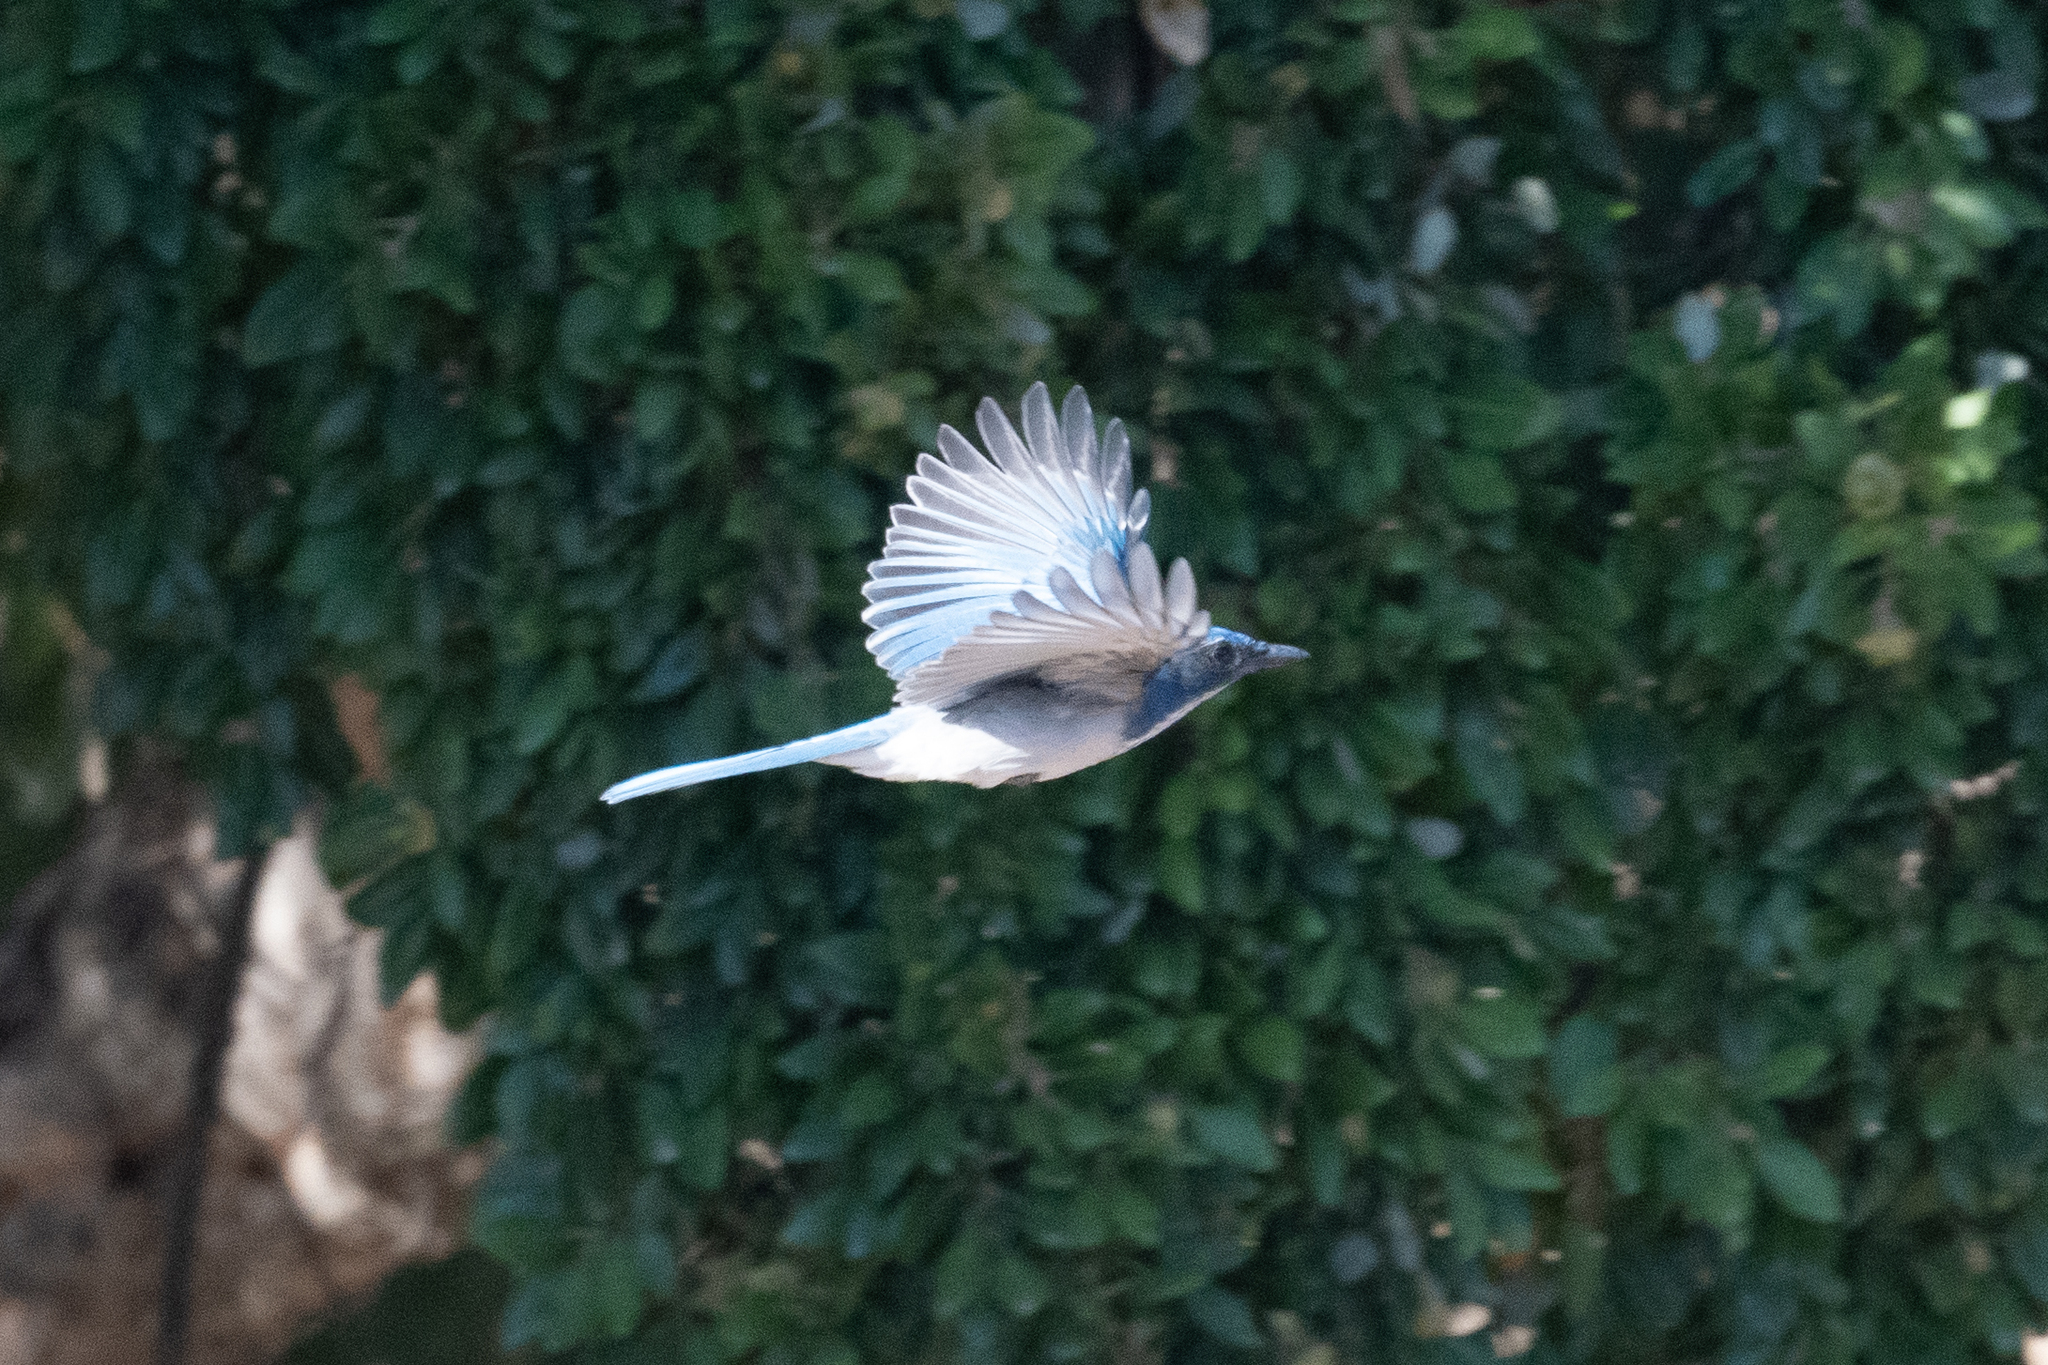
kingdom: Animalia
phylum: Chordata
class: Aves
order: Passeriformes
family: Corvidae
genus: Aphelocoma
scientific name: Aphelocoma californica
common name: California scrub-jay
